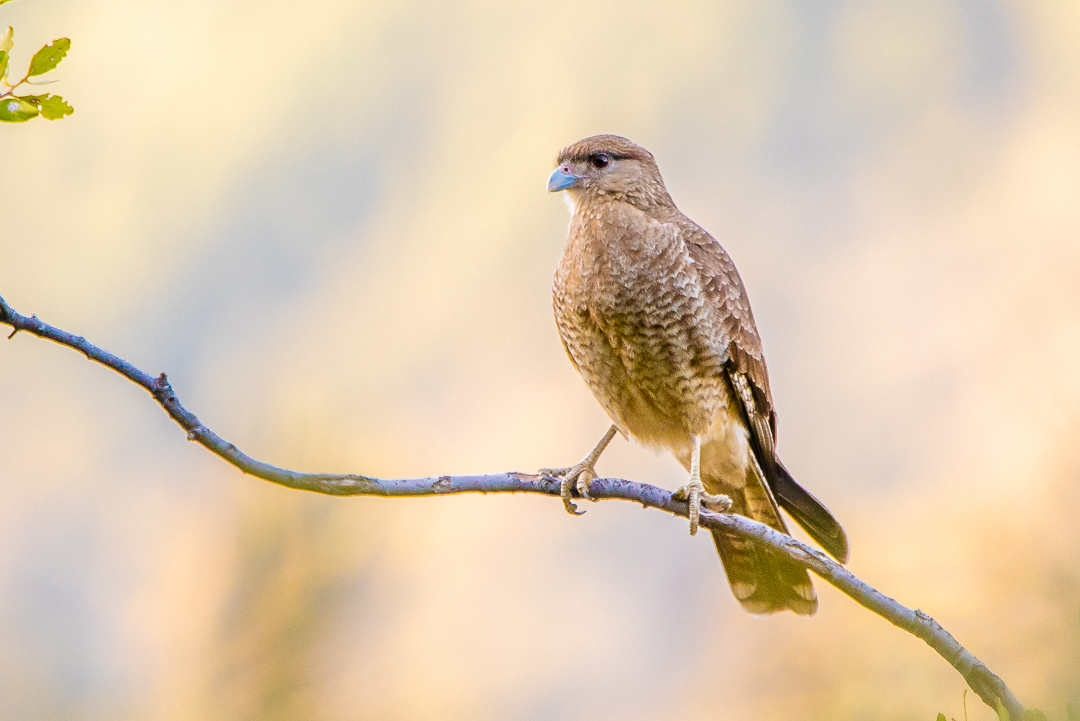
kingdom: Animalia
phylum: Chordata
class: Aves
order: Falconiformes
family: Falconidae
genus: Daptrius
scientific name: Daptrius
